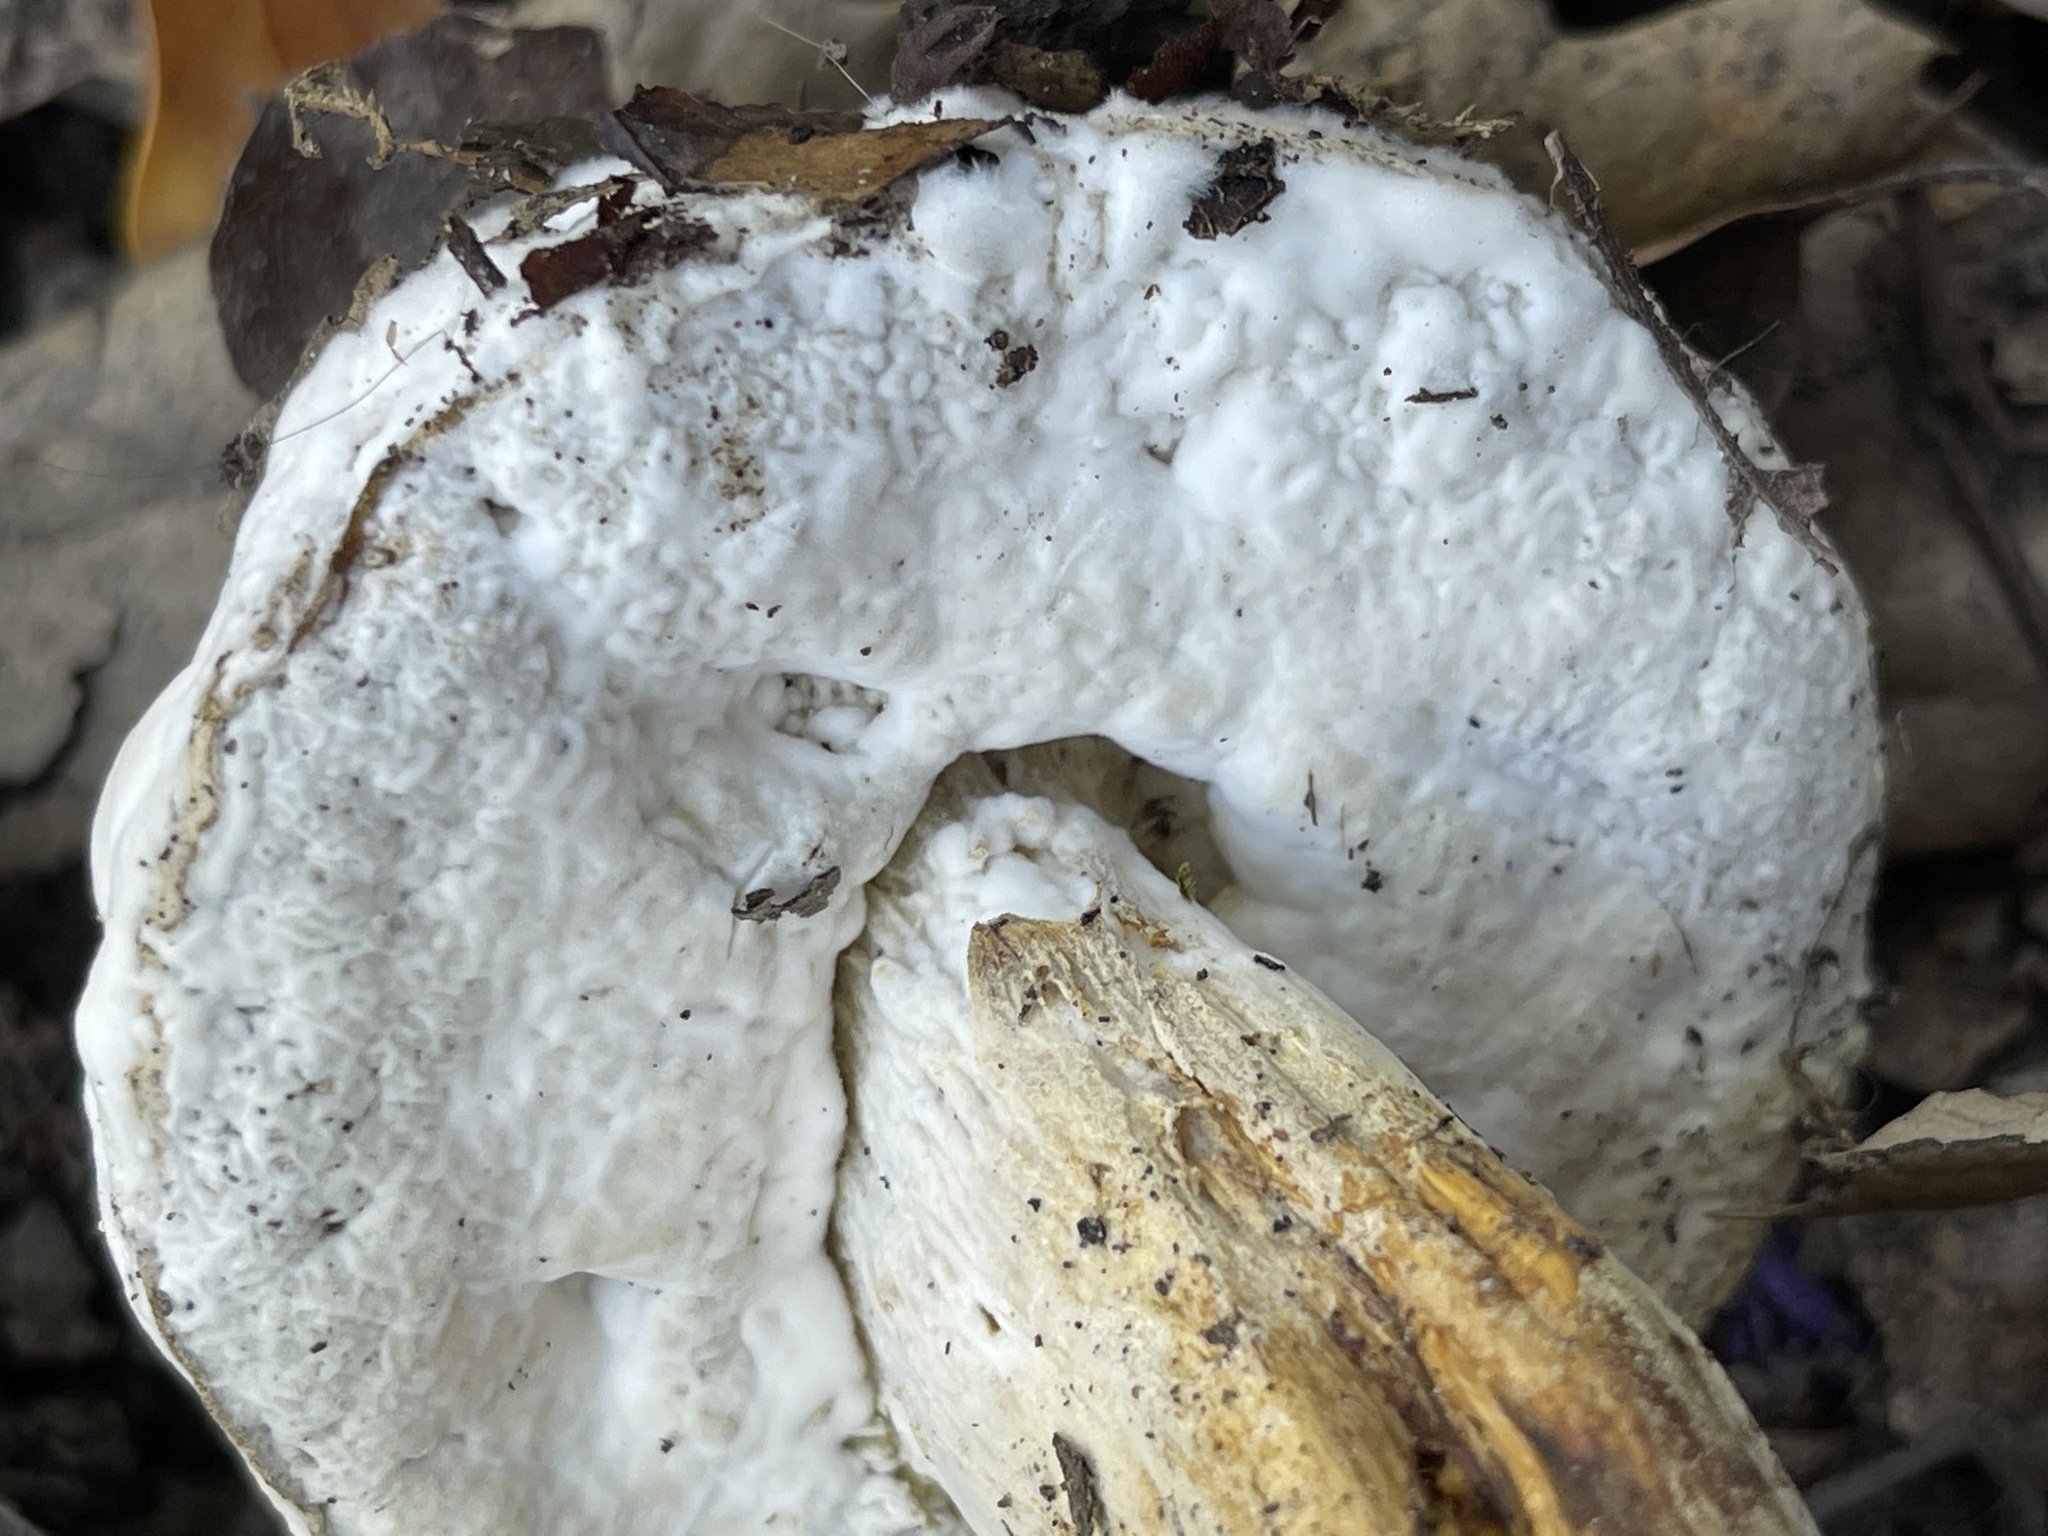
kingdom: Fungi
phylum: Ascomycota
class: Sordariomycetes
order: Hypocreales
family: Hypocreaceae
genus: Hypomyces
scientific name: Hypomyces chrysospermus
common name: Bolete mould
